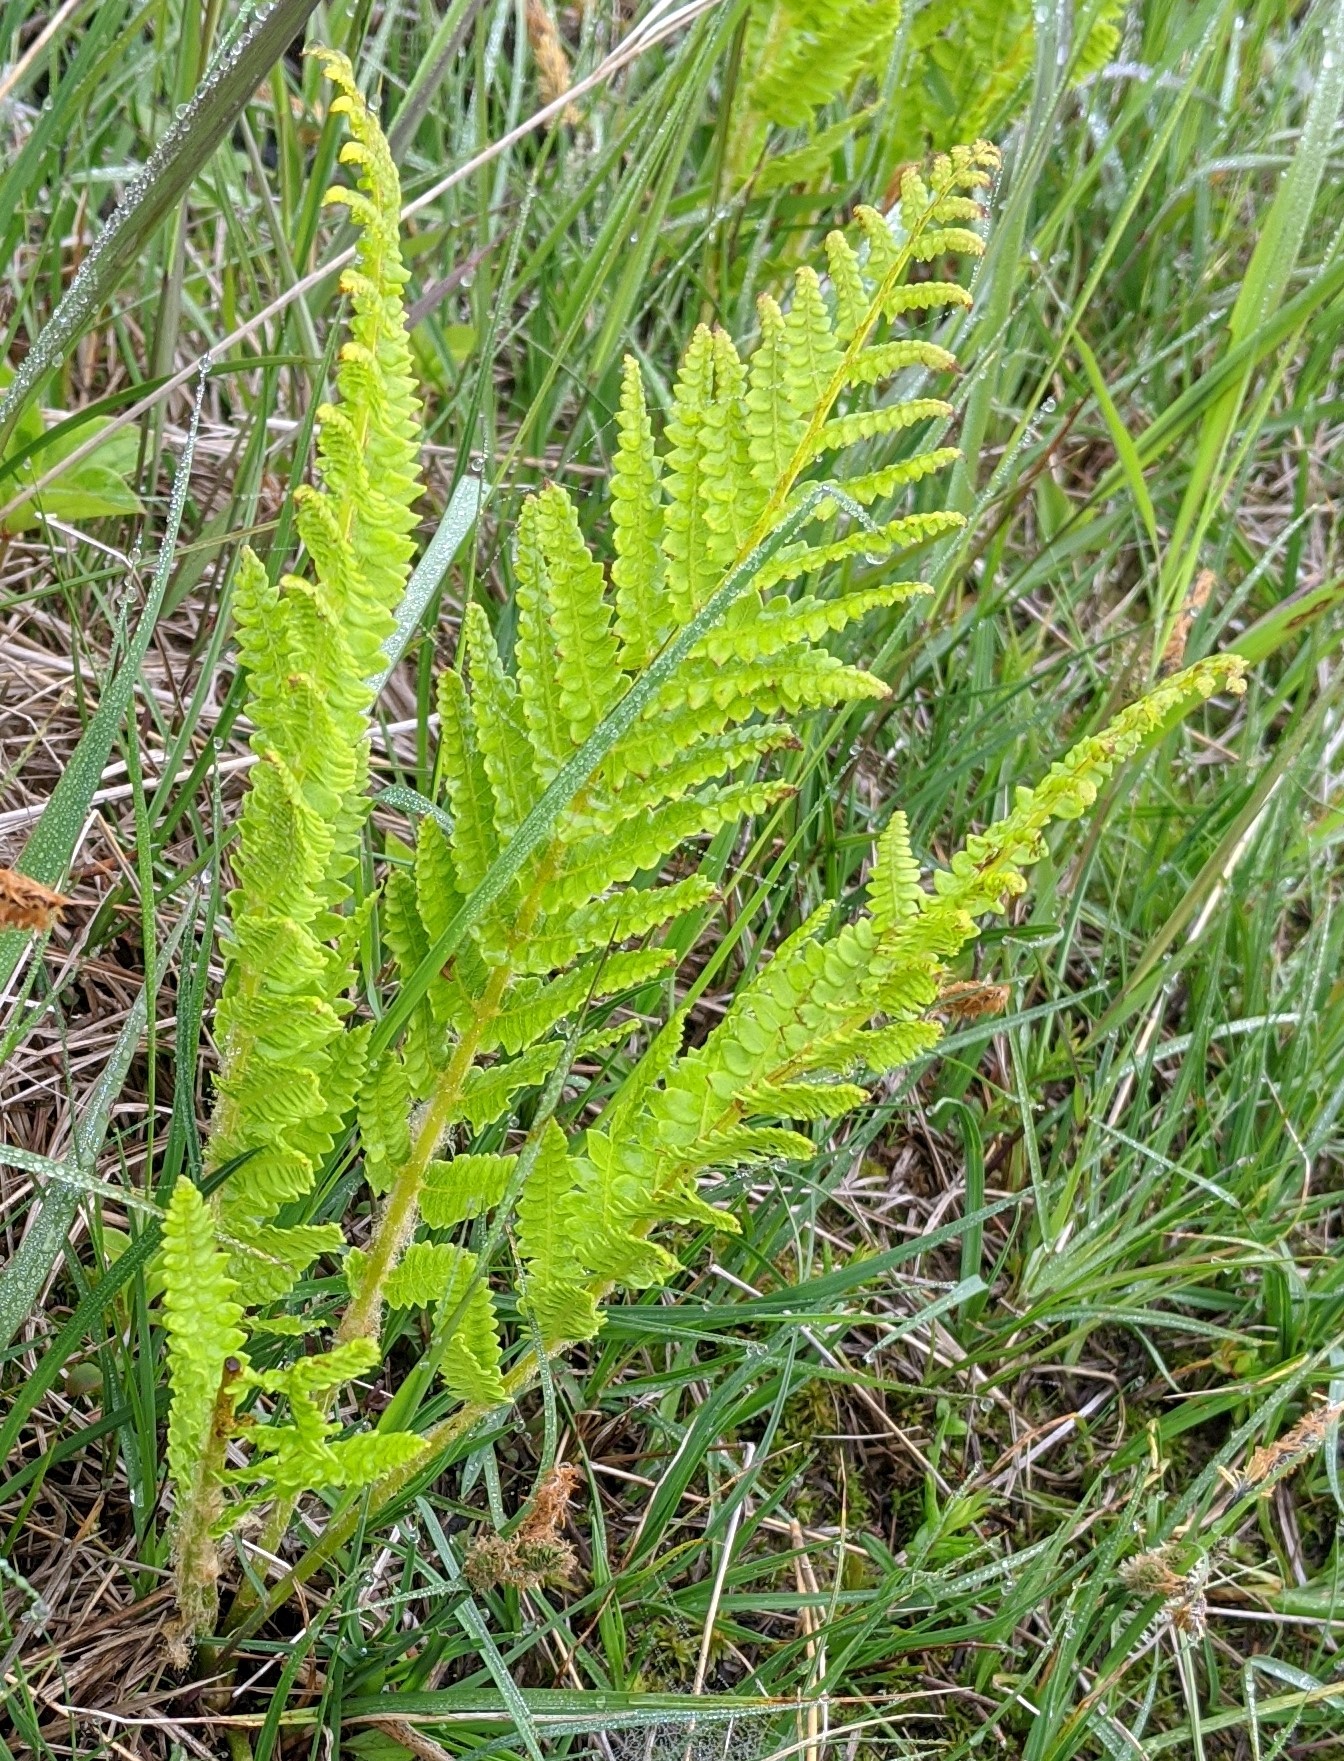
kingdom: Plantae
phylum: Tracheophyta
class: Polypodiopsida
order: Osmundales
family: Osmundaceae
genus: Osmundastrum
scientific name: Osmundastrum cinnamomeum
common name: Cinnamon fern
